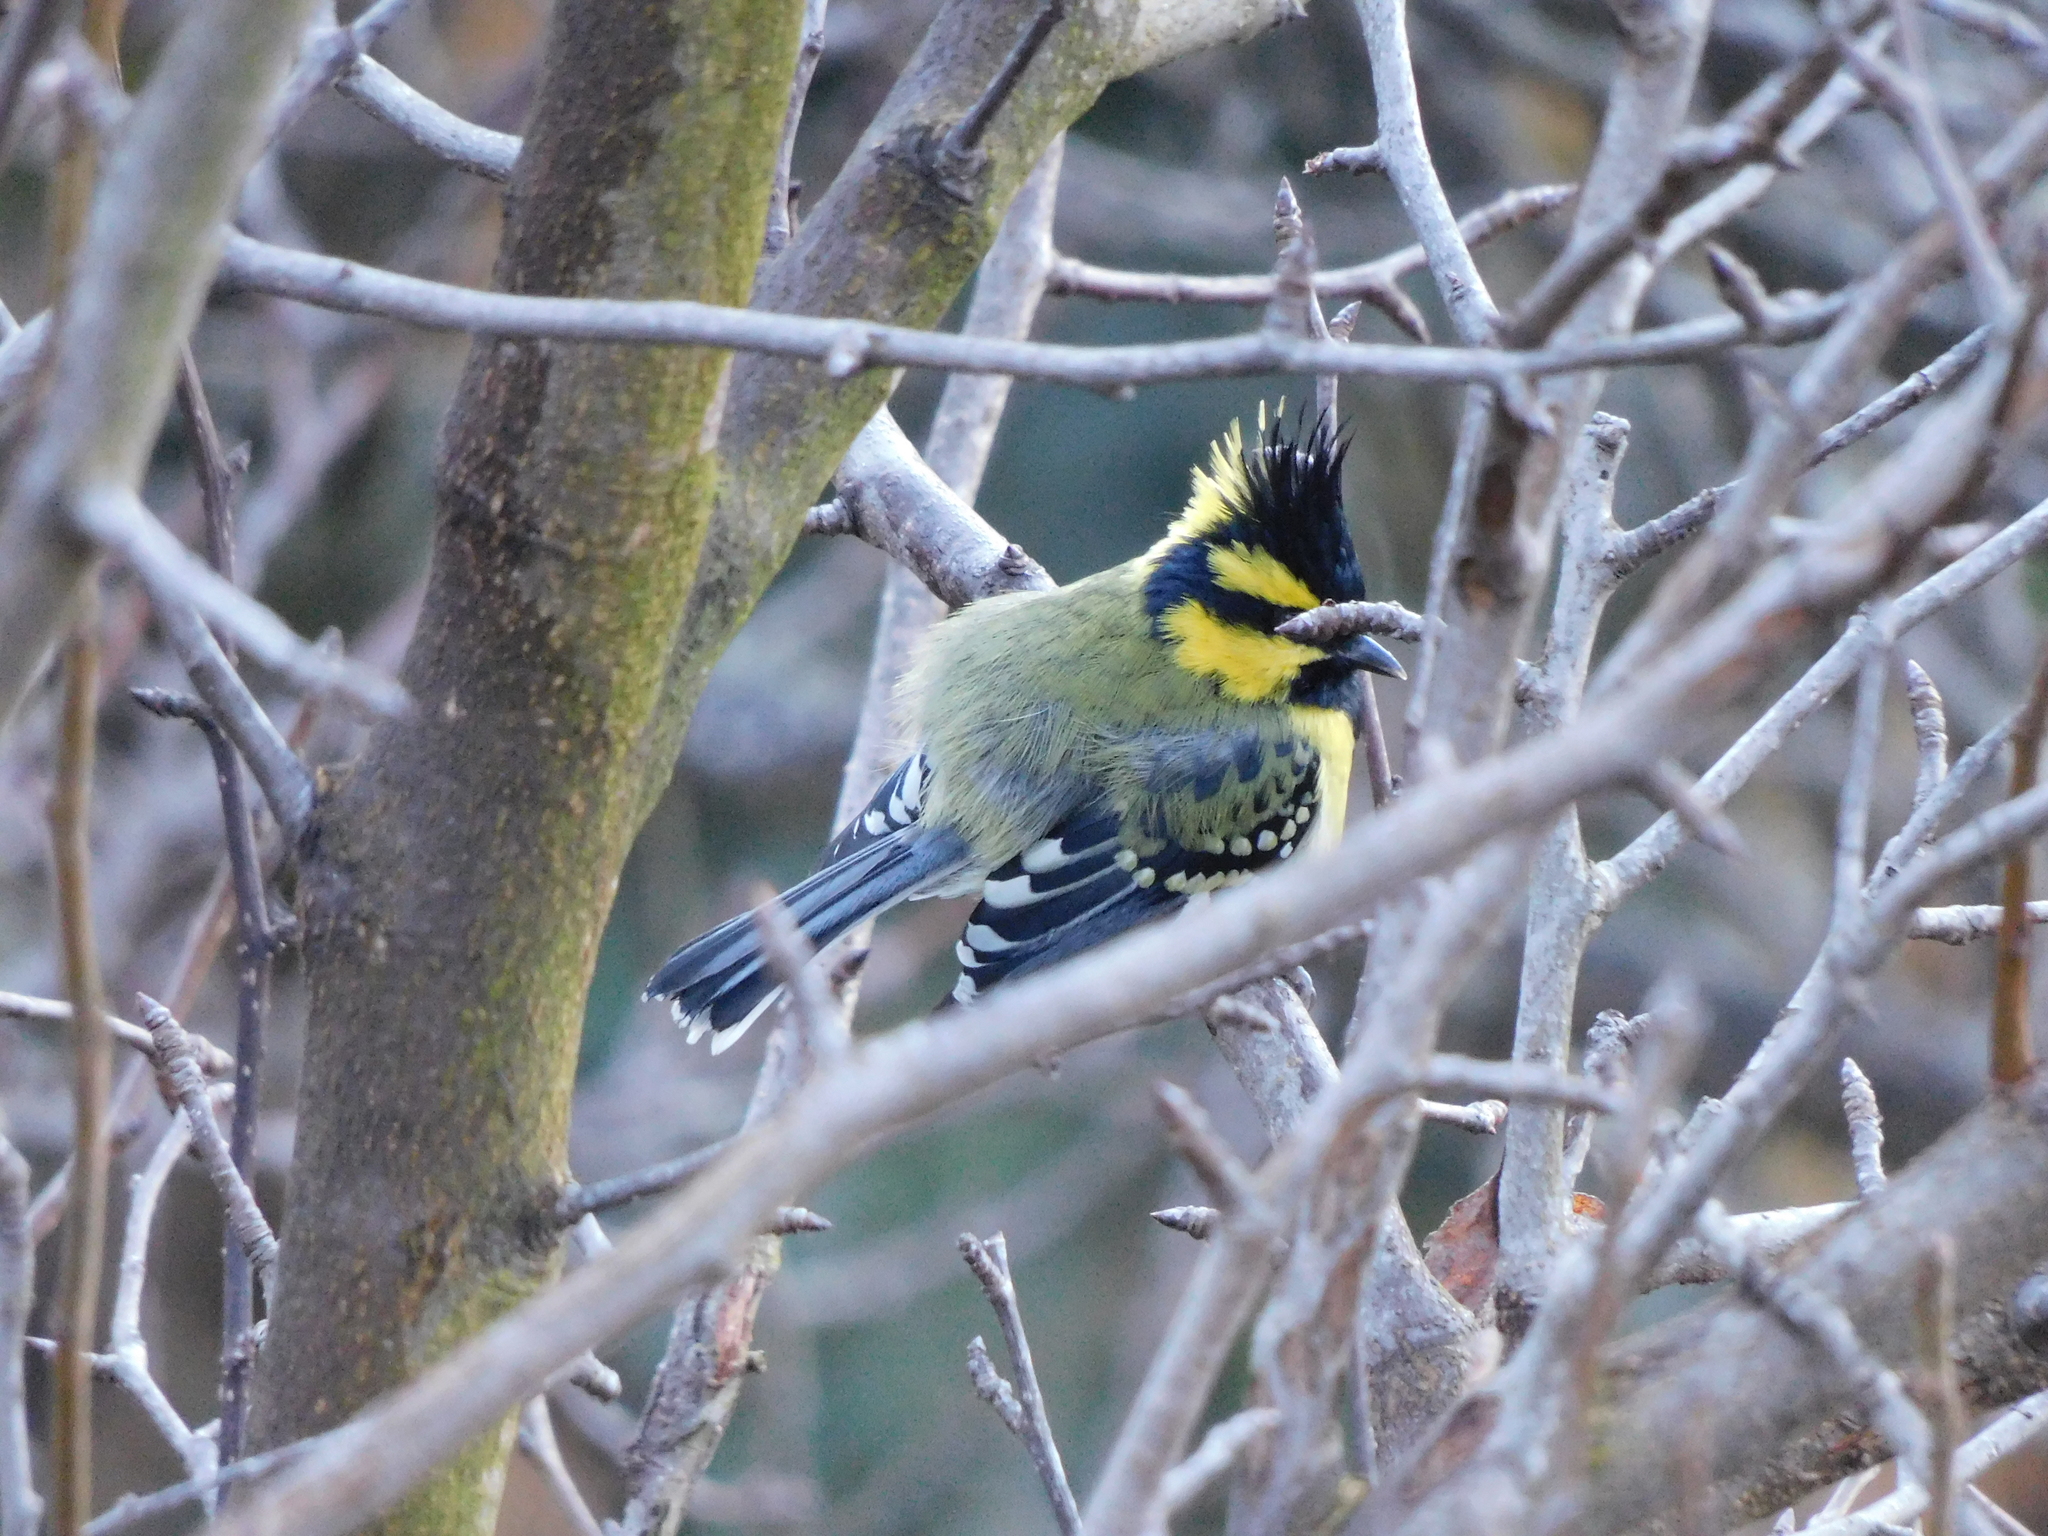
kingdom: Animalia
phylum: Chordata
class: Aves
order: Passeriformes
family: Paridae
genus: Parus
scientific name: Parus xanthogenys
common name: Black-lored tit
